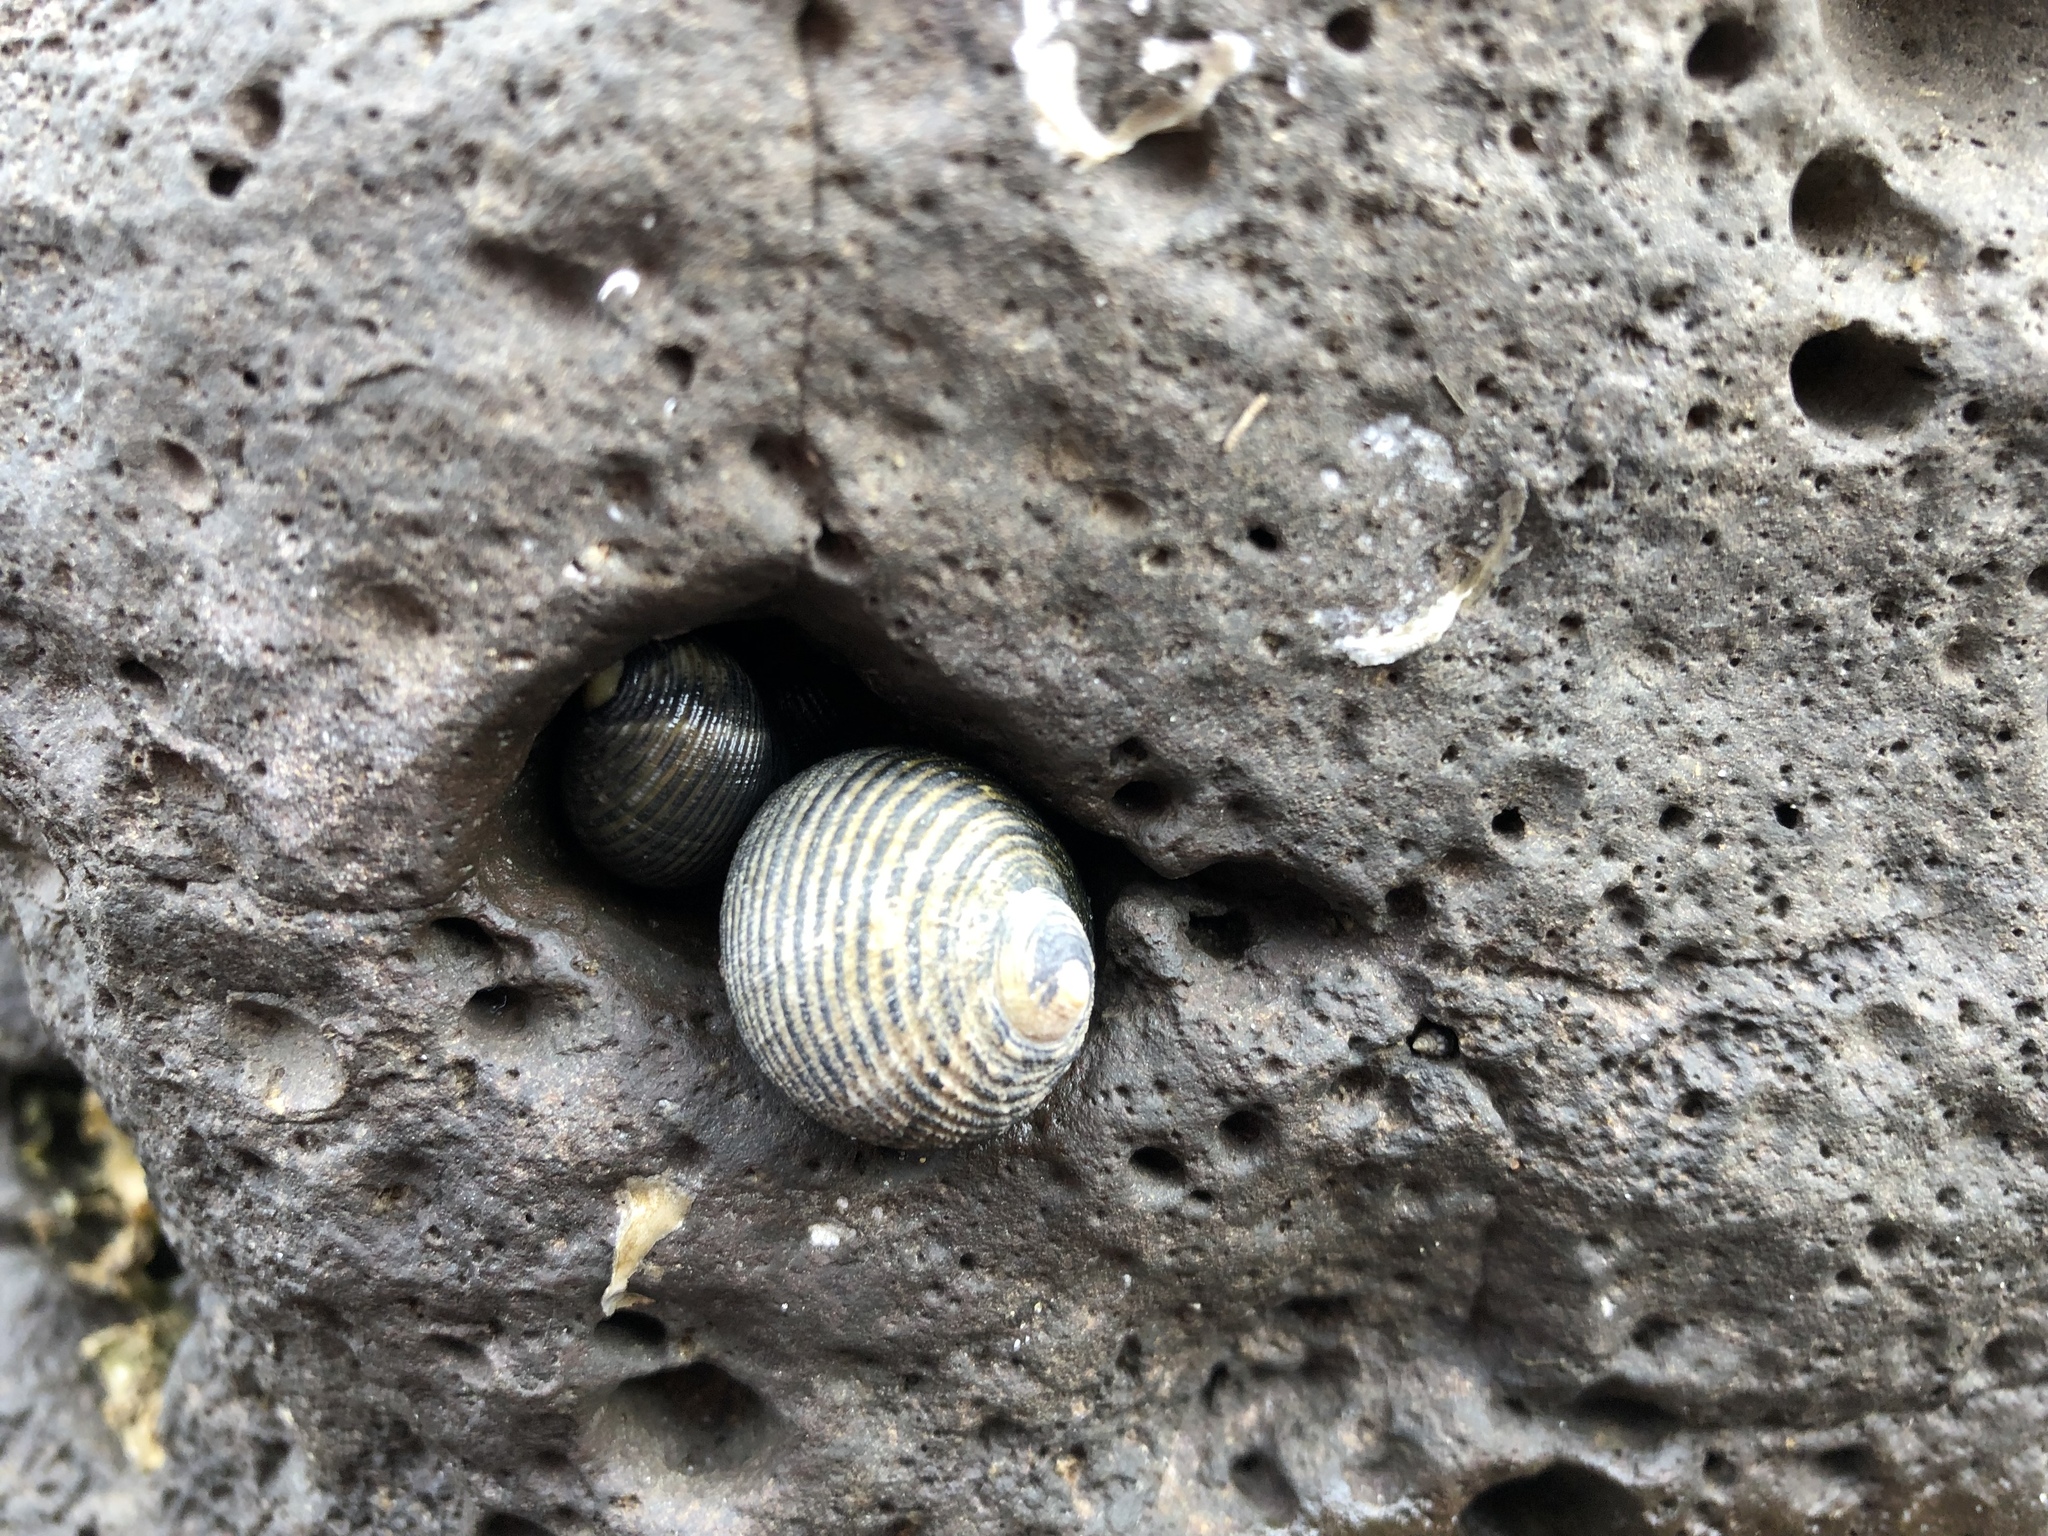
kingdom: Animalia
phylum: Mollusca
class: Gastropoda
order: Cycloneritida
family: Neritidae
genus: Nerita
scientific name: Nerita scabricosta
